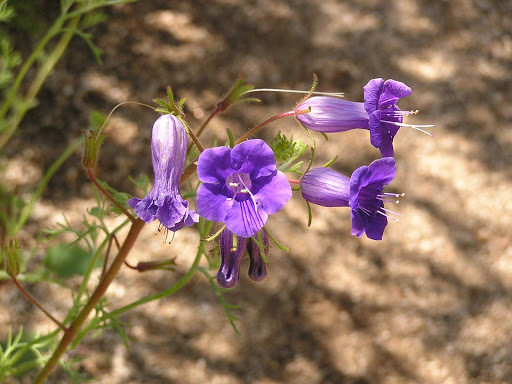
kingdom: Plantae
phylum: Tracheophyta
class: Magnoliopsida
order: Boraginales
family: Hydrophyllaceae
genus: Phacelia
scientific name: Phacelia minor
